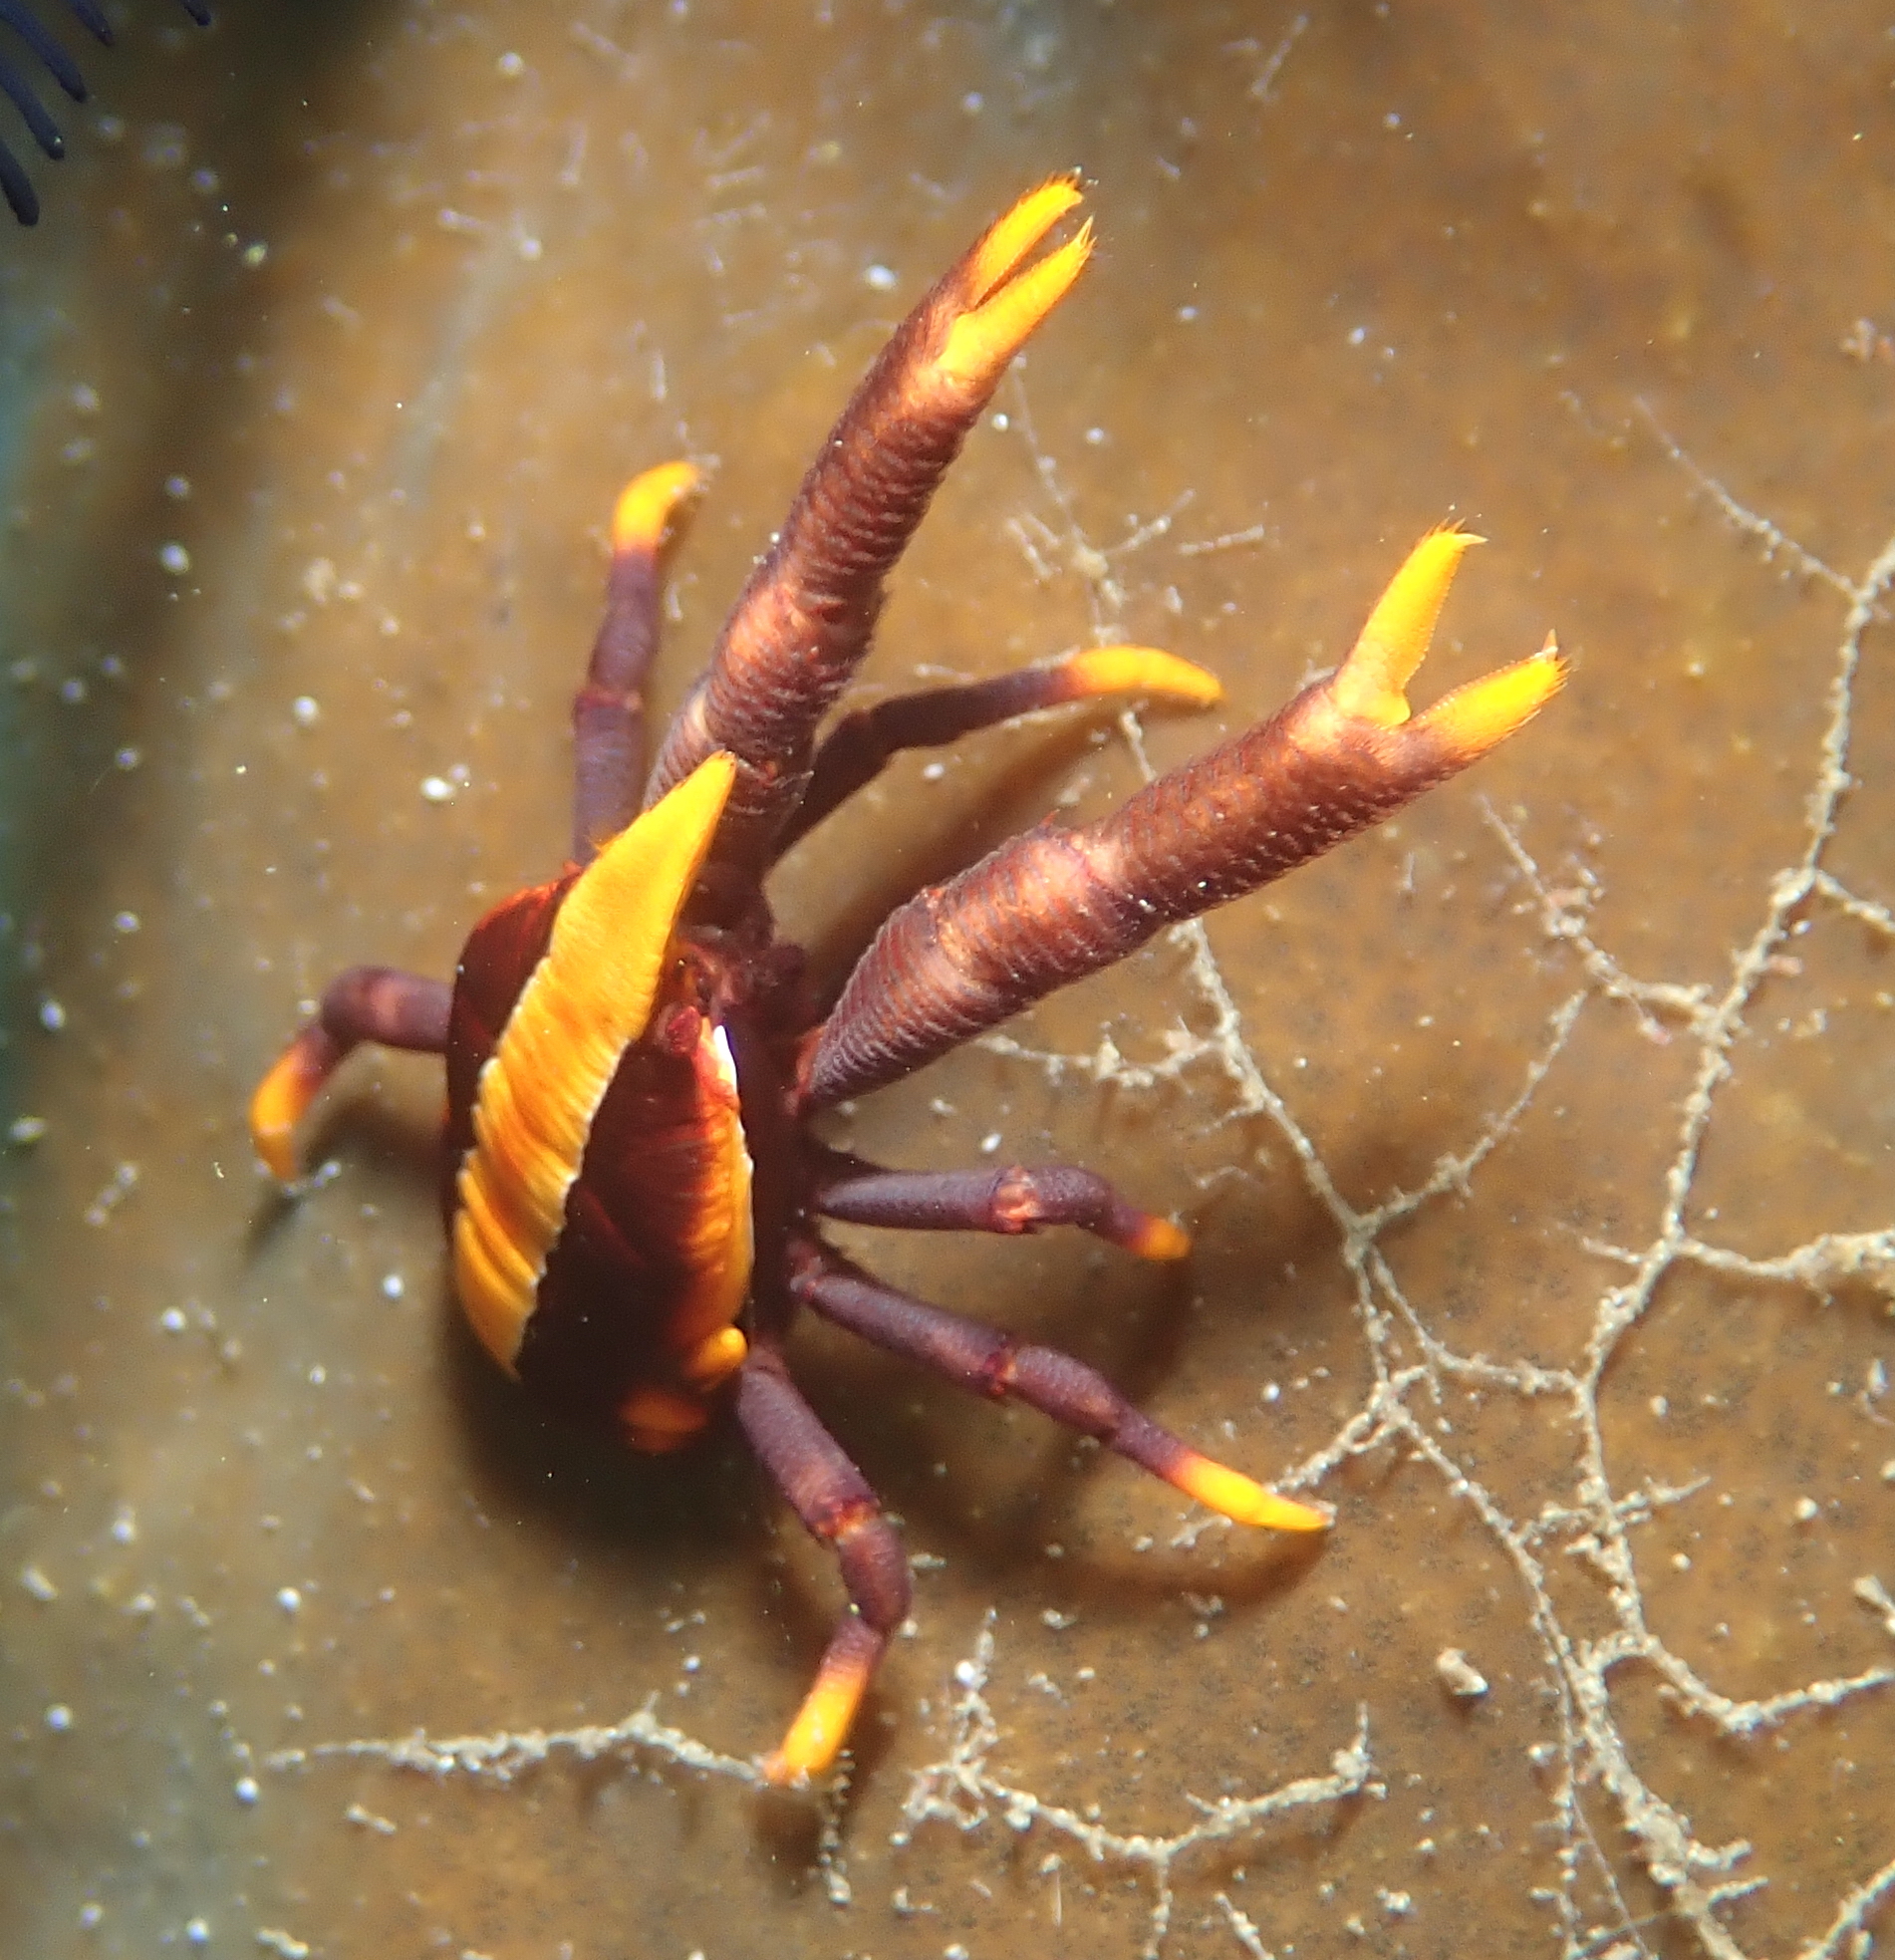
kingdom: Animalia
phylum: Arthropoda
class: Malacostraca
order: Decapoda
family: Galatheidae
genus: Allogalathea
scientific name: Allogalathea babai
